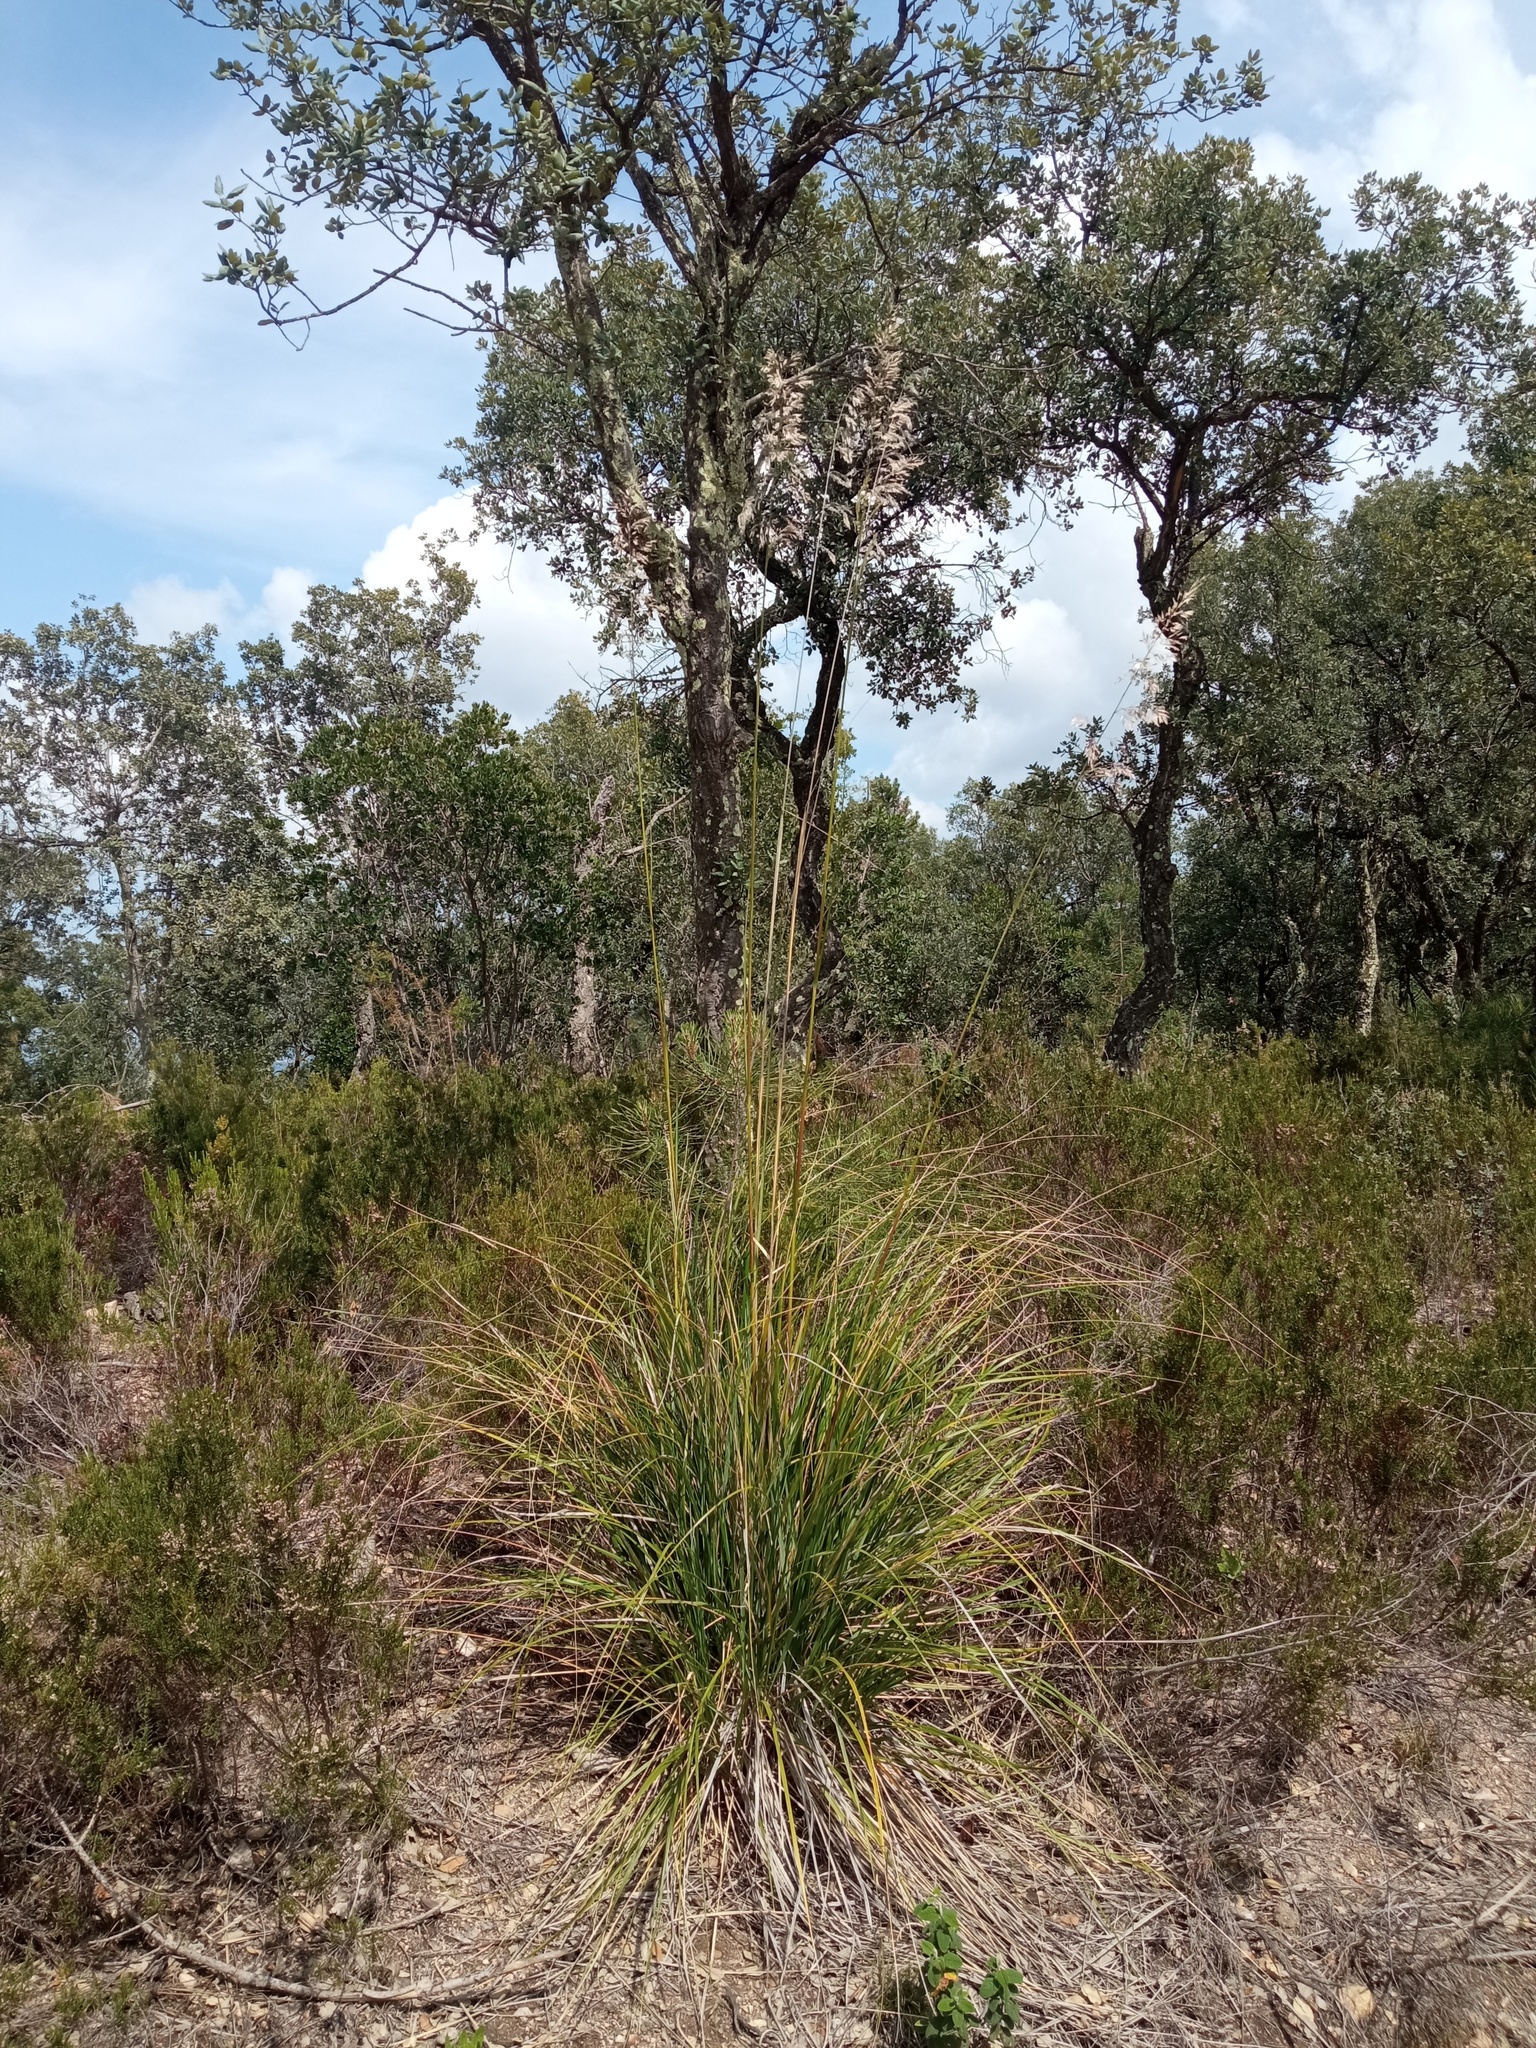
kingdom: Plantae
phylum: Tracheophyta
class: Liliopsida
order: Poales
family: Poaceae
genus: Ampelodesmos
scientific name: Ampelodesmos mauritanicus
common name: Mauritanian grass
